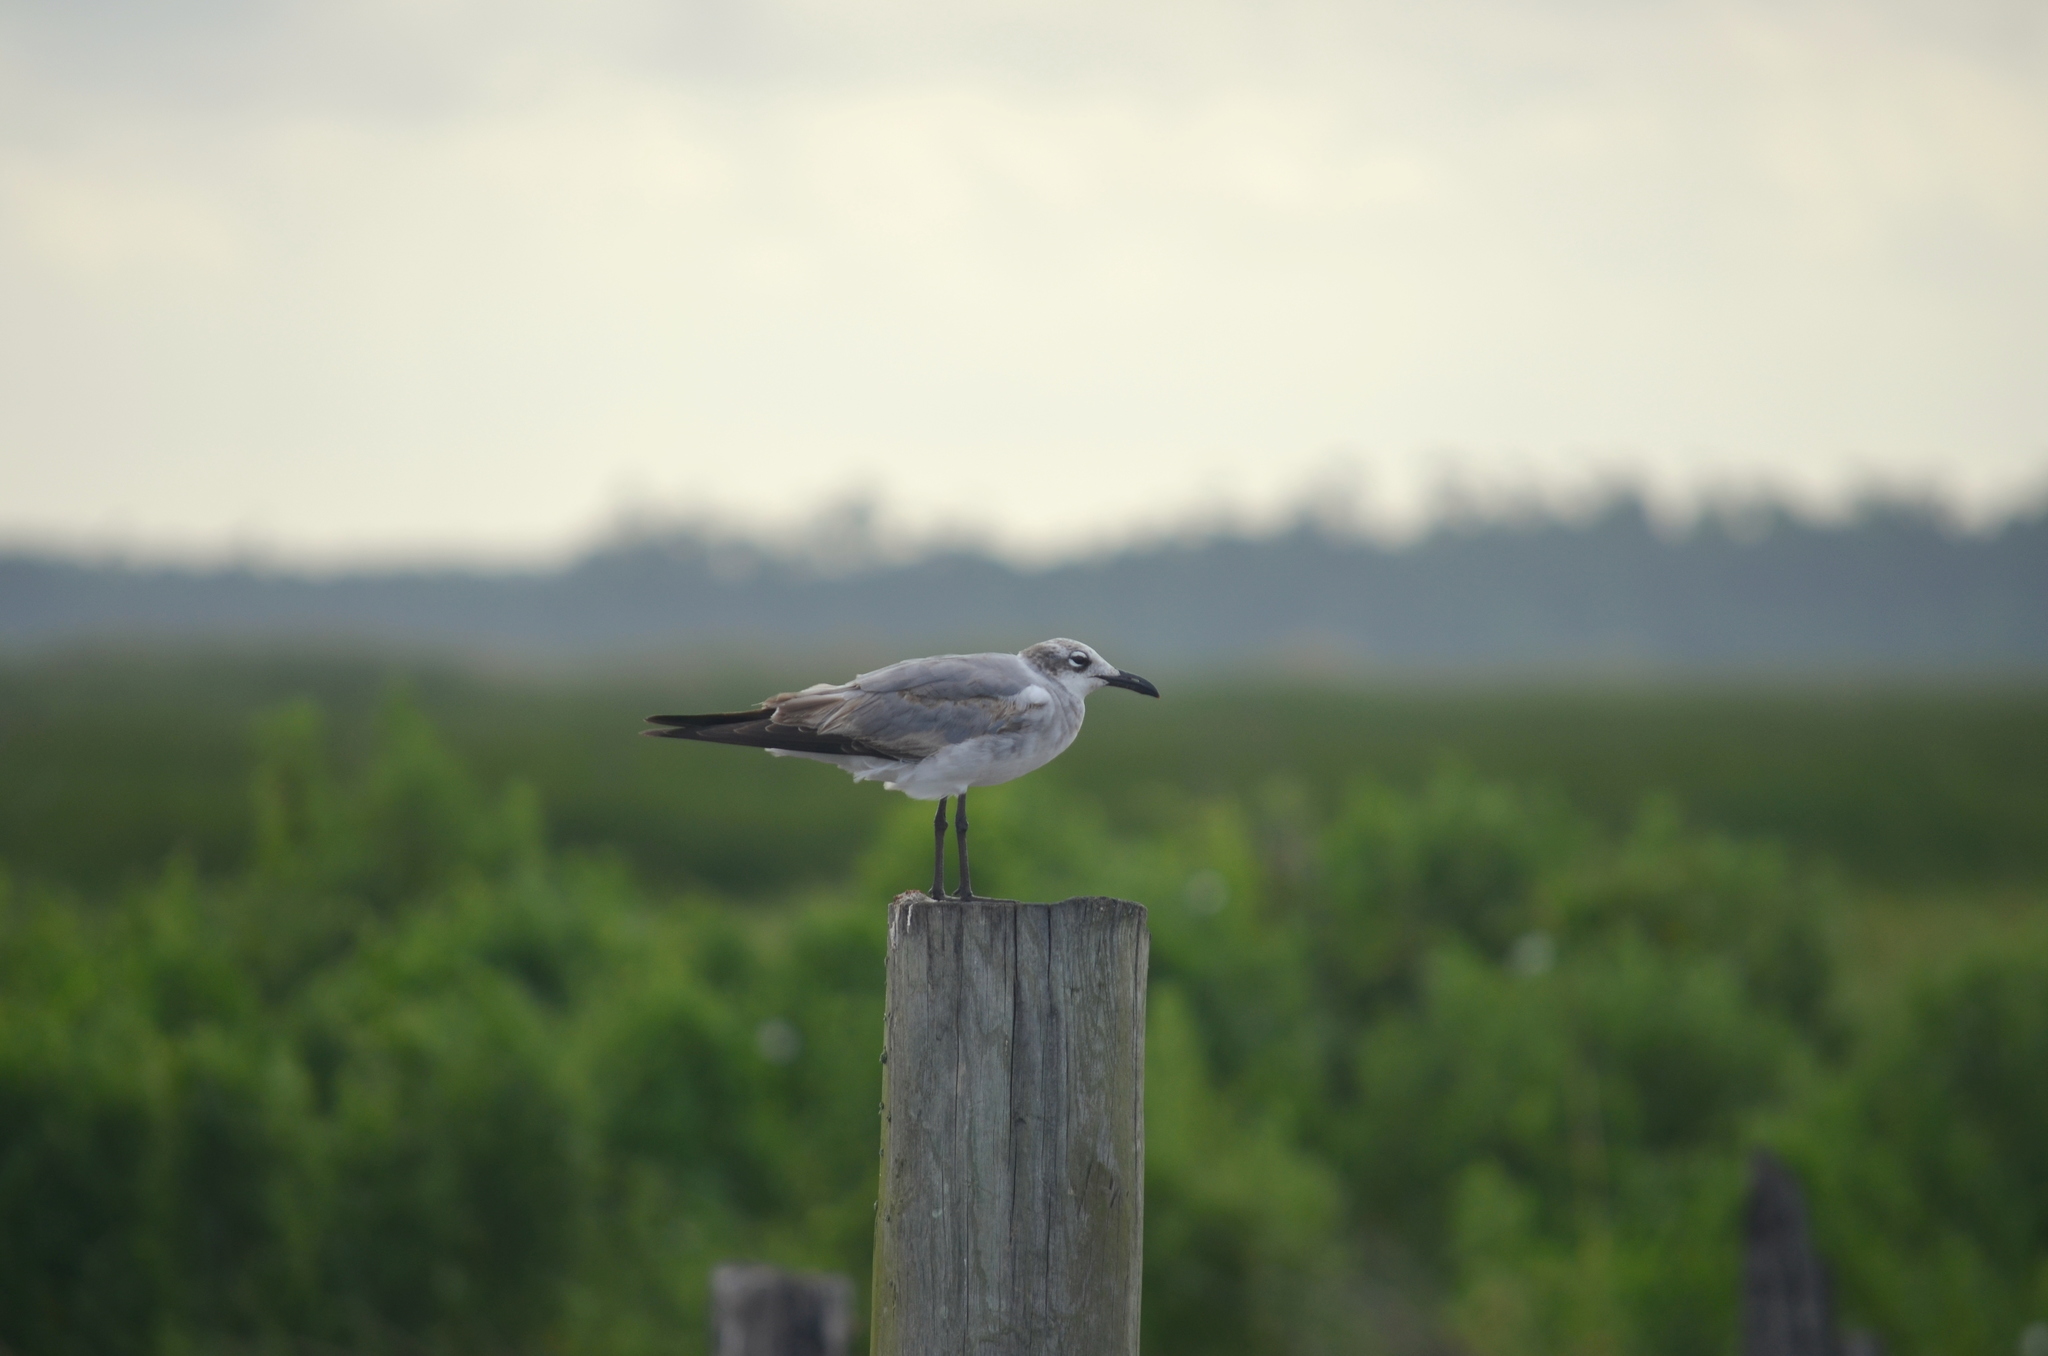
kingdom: Animalia
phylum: Chordata
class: Aves
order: Charadriiformes
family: Laridae
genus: Leucophaeus
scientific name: Leucophaeus atricilla
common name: Laughing gull
